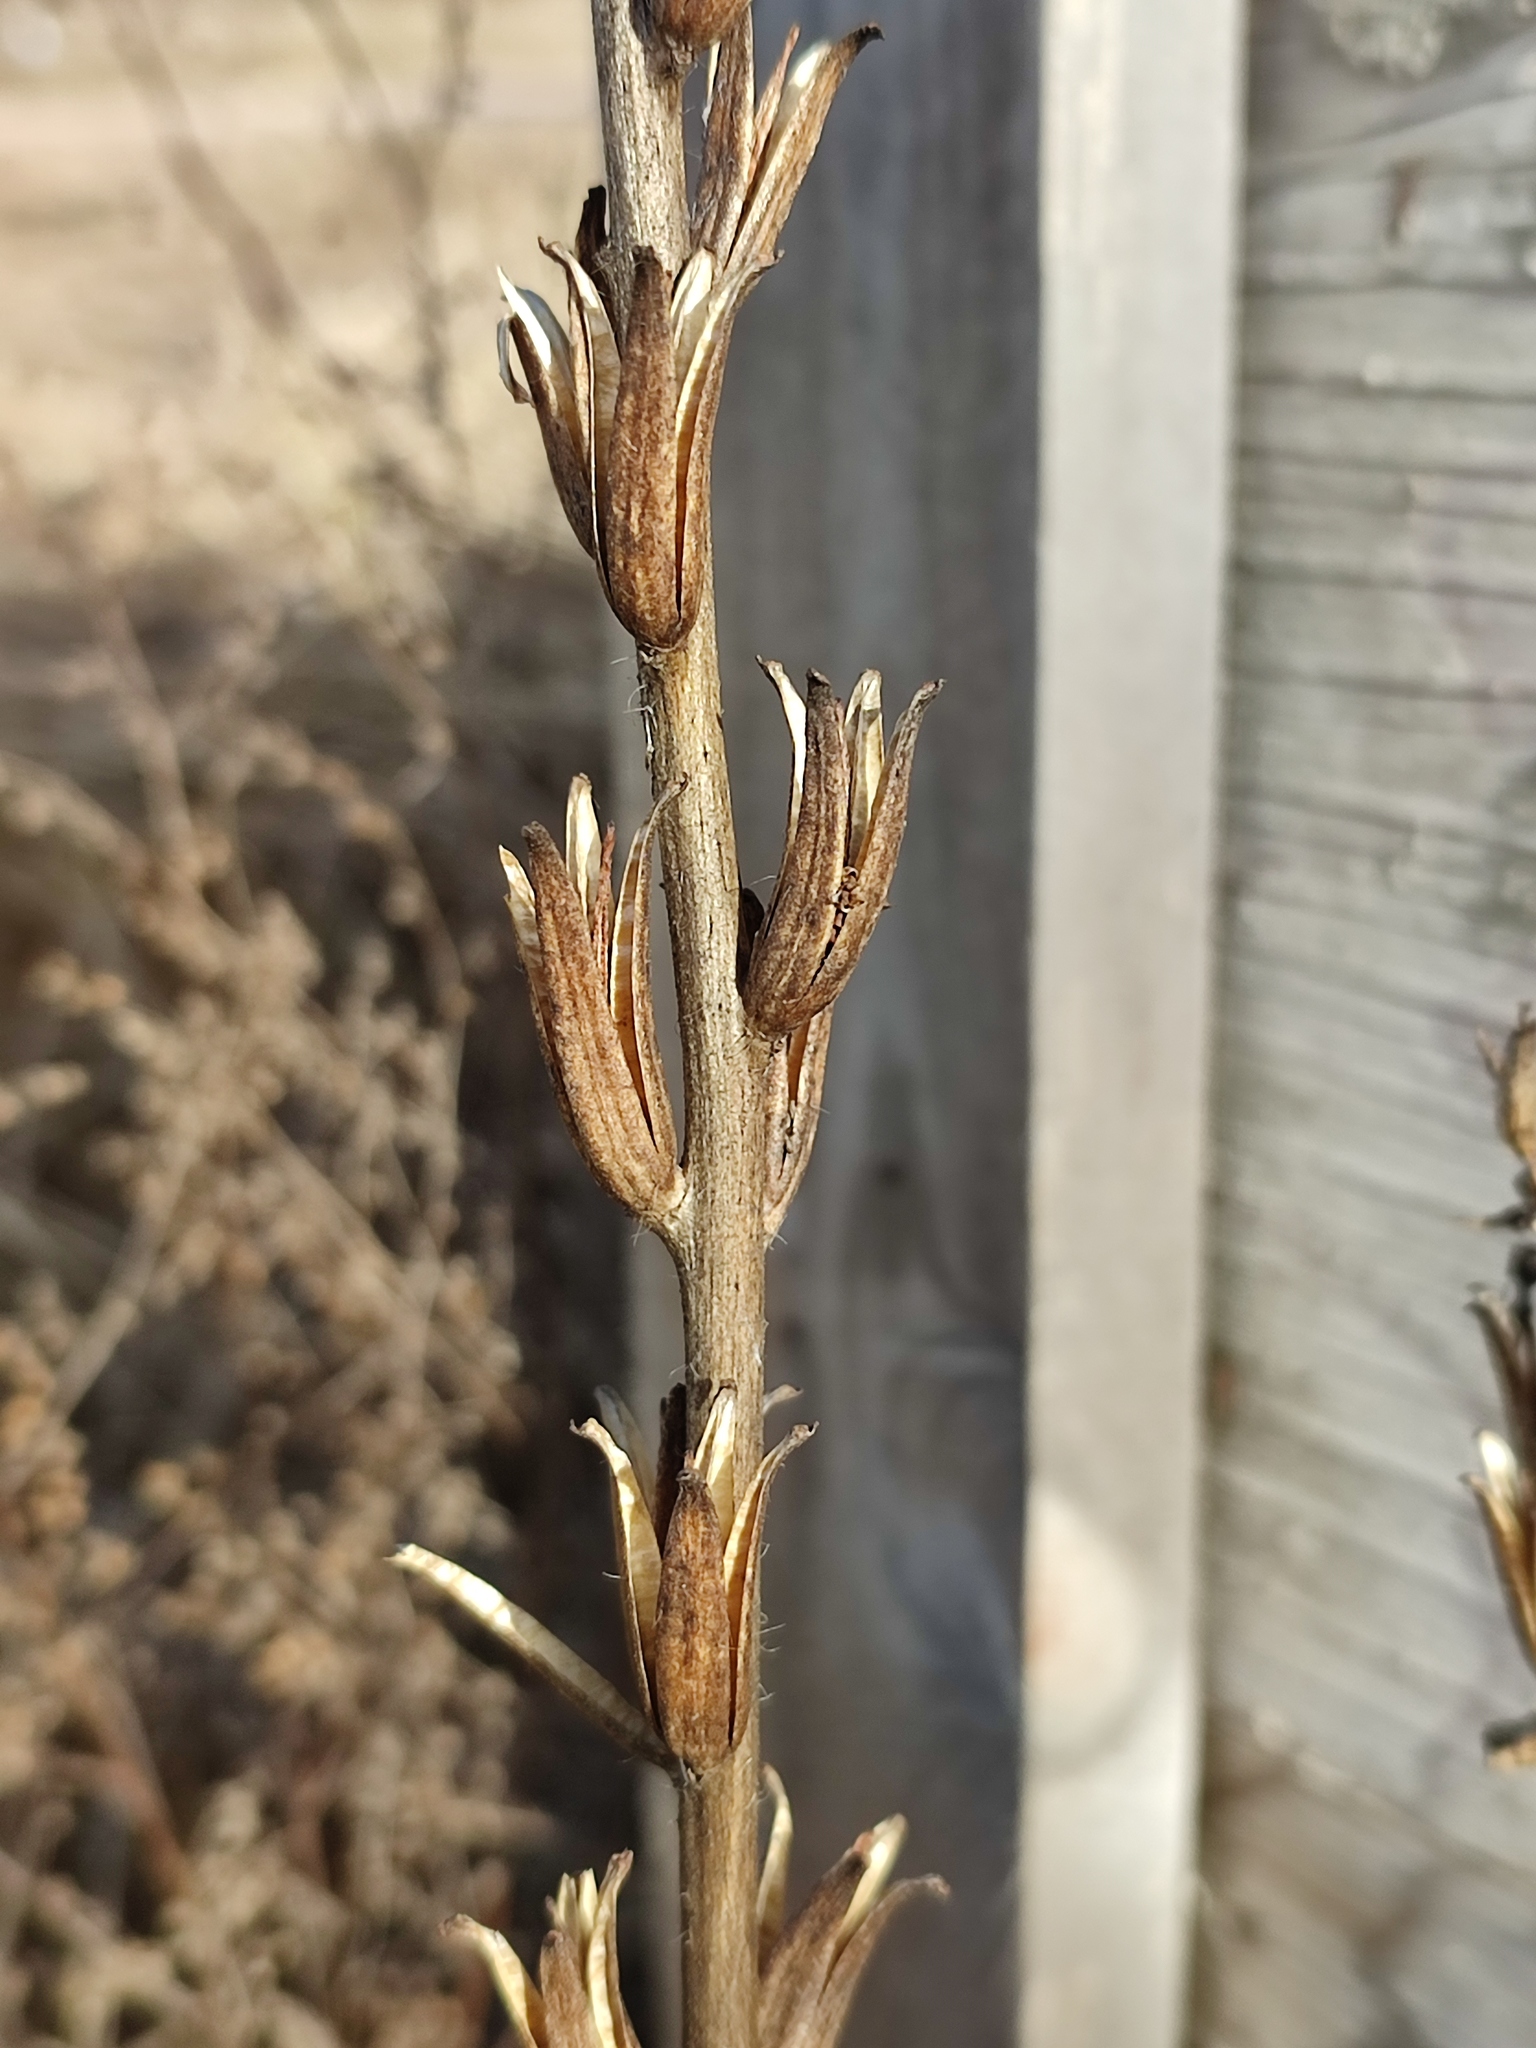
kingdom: Plantae
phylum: Tracheophyta
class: Magnoliopsida
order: Myrtales
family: Onagraceae
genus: Oenothera
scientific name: Oenothera
